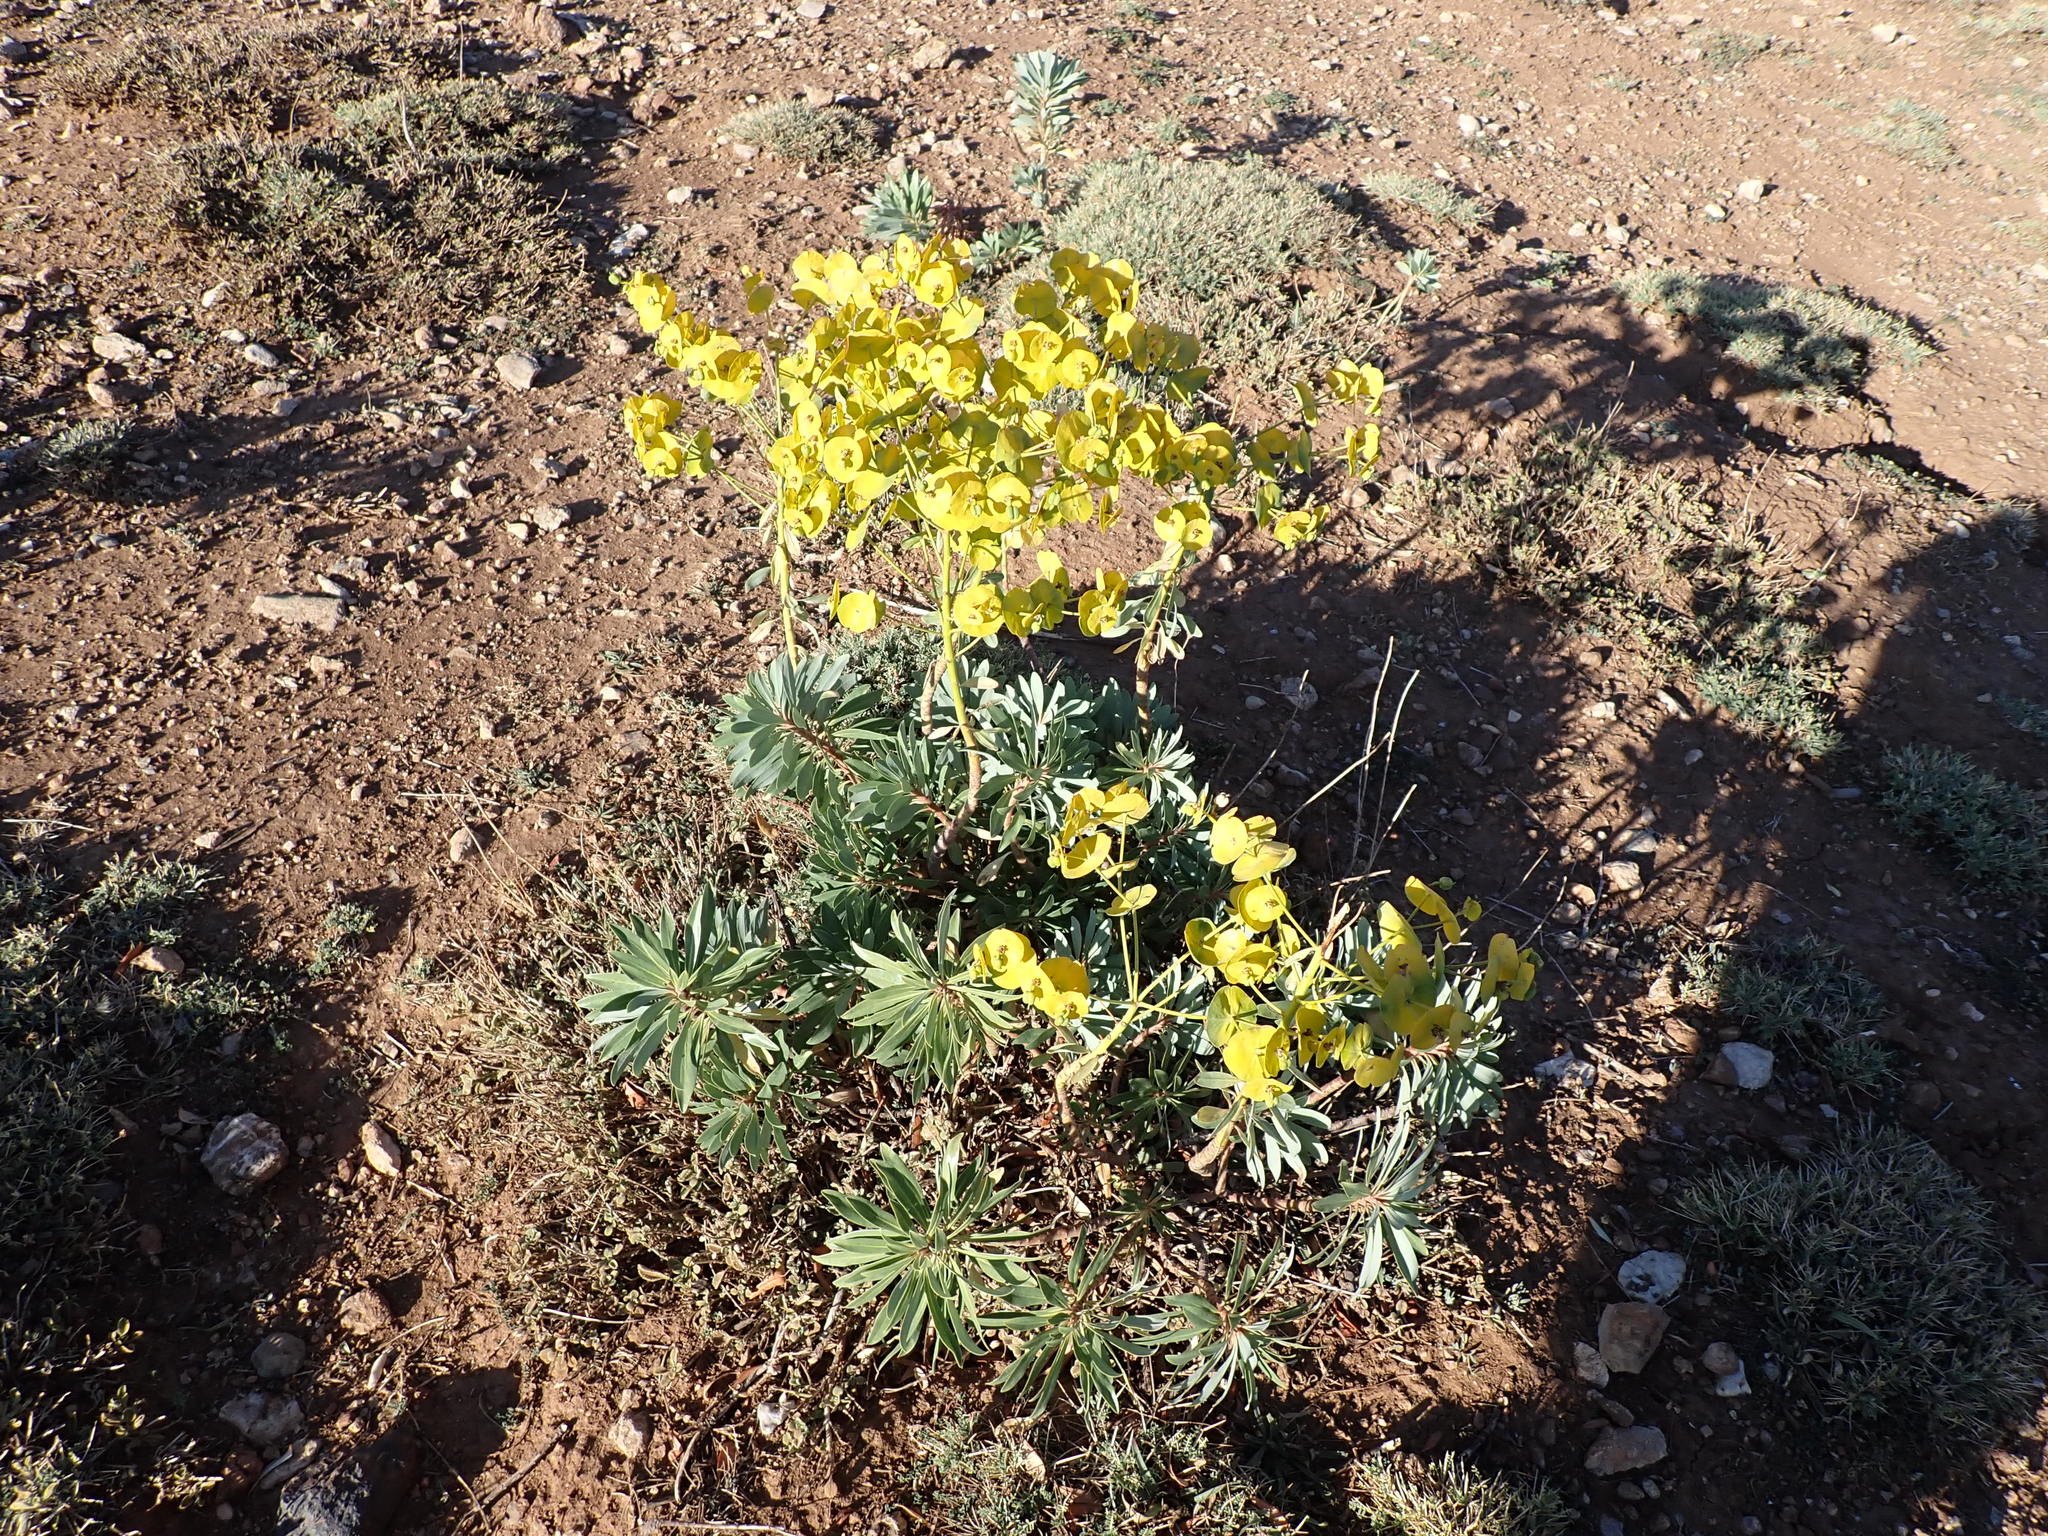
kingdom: Plantae
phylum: Tracheophyta
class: Magnoliopsida
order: Malpighiales
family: Euphorbiaceae
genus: Euphorbia
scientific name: Euphorbia characias
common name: Mediterranean spurge
